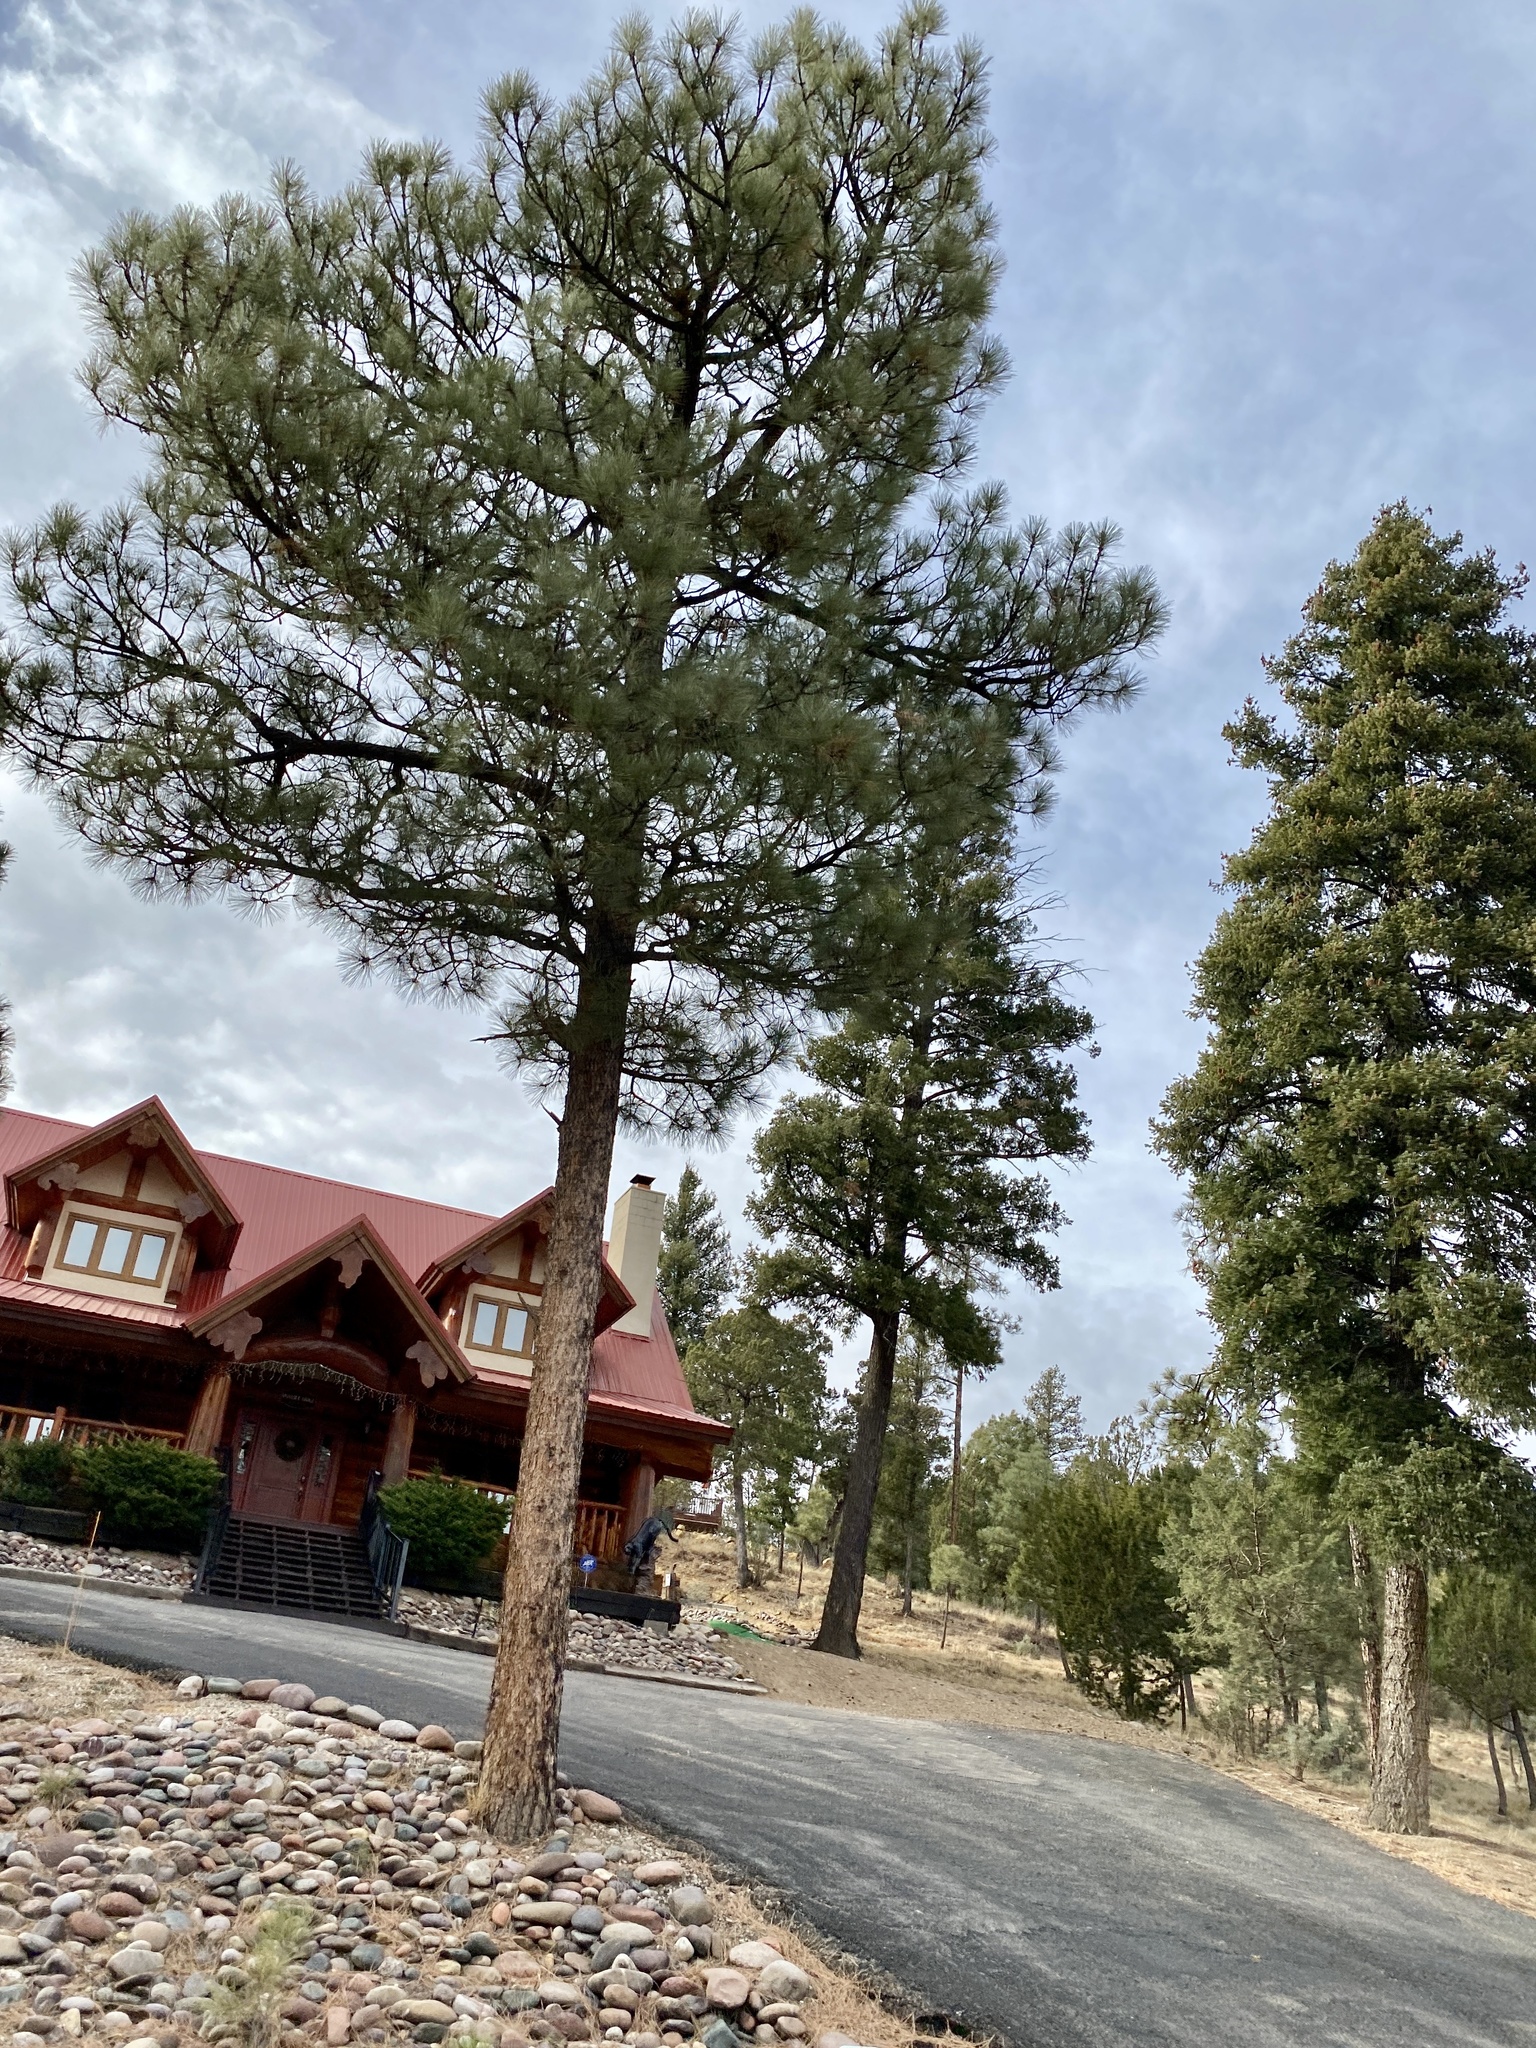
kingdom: Plantae
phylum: Tracheophyta
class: Pinopsida
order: Pinales
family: Pinaceae
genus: Pinus
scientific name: Pinus ponderosa
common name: Western yellow-pine
